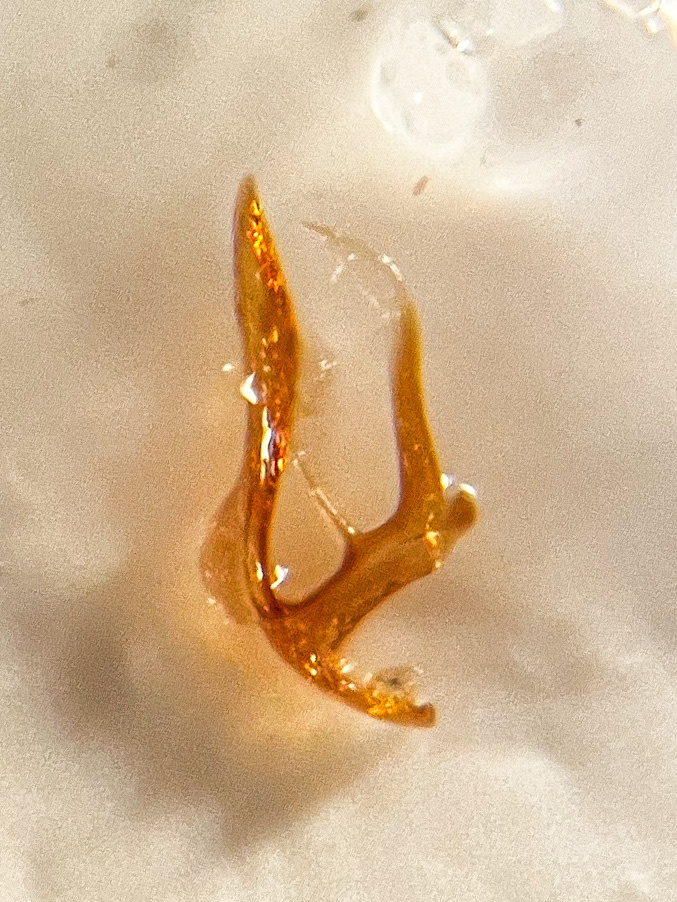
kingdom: Animalia
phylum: Arthropoda
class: Insecta
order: Hemiptera
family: Cicadellidae
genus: Ribautiana
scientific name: Ribautiana ognevi
